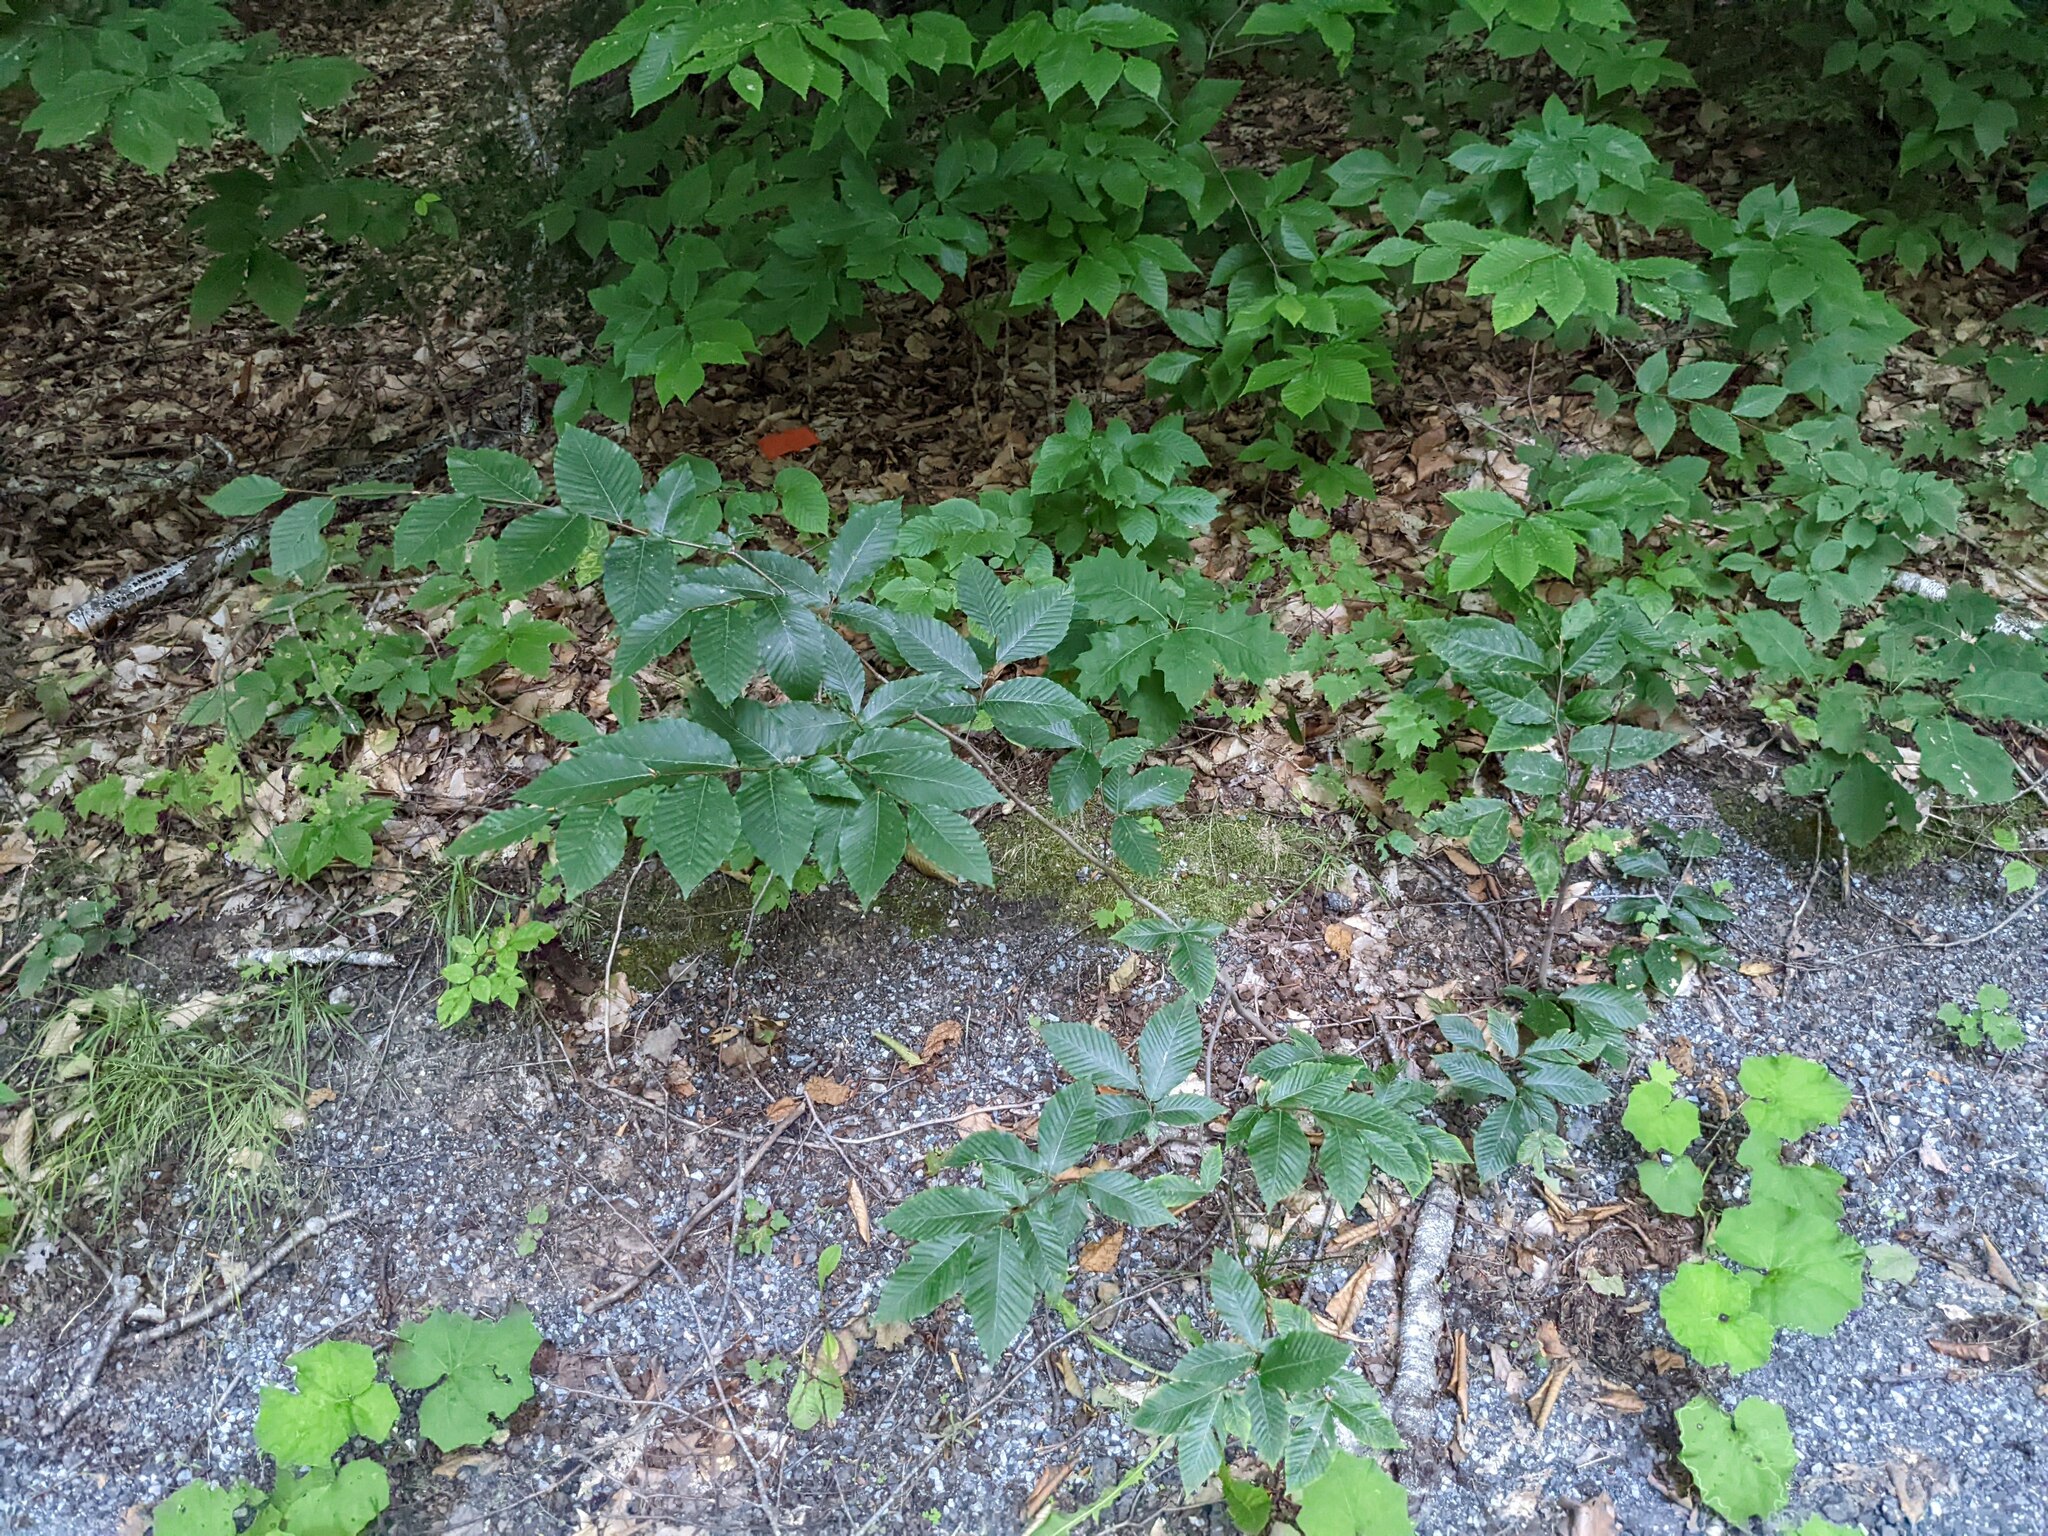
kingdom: Plantae
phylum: Tracheophyta
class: Magnoliopsida
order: Fagales
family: Fagaceae
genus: Fagus
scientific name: Fagus grandifolia
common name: American beech
